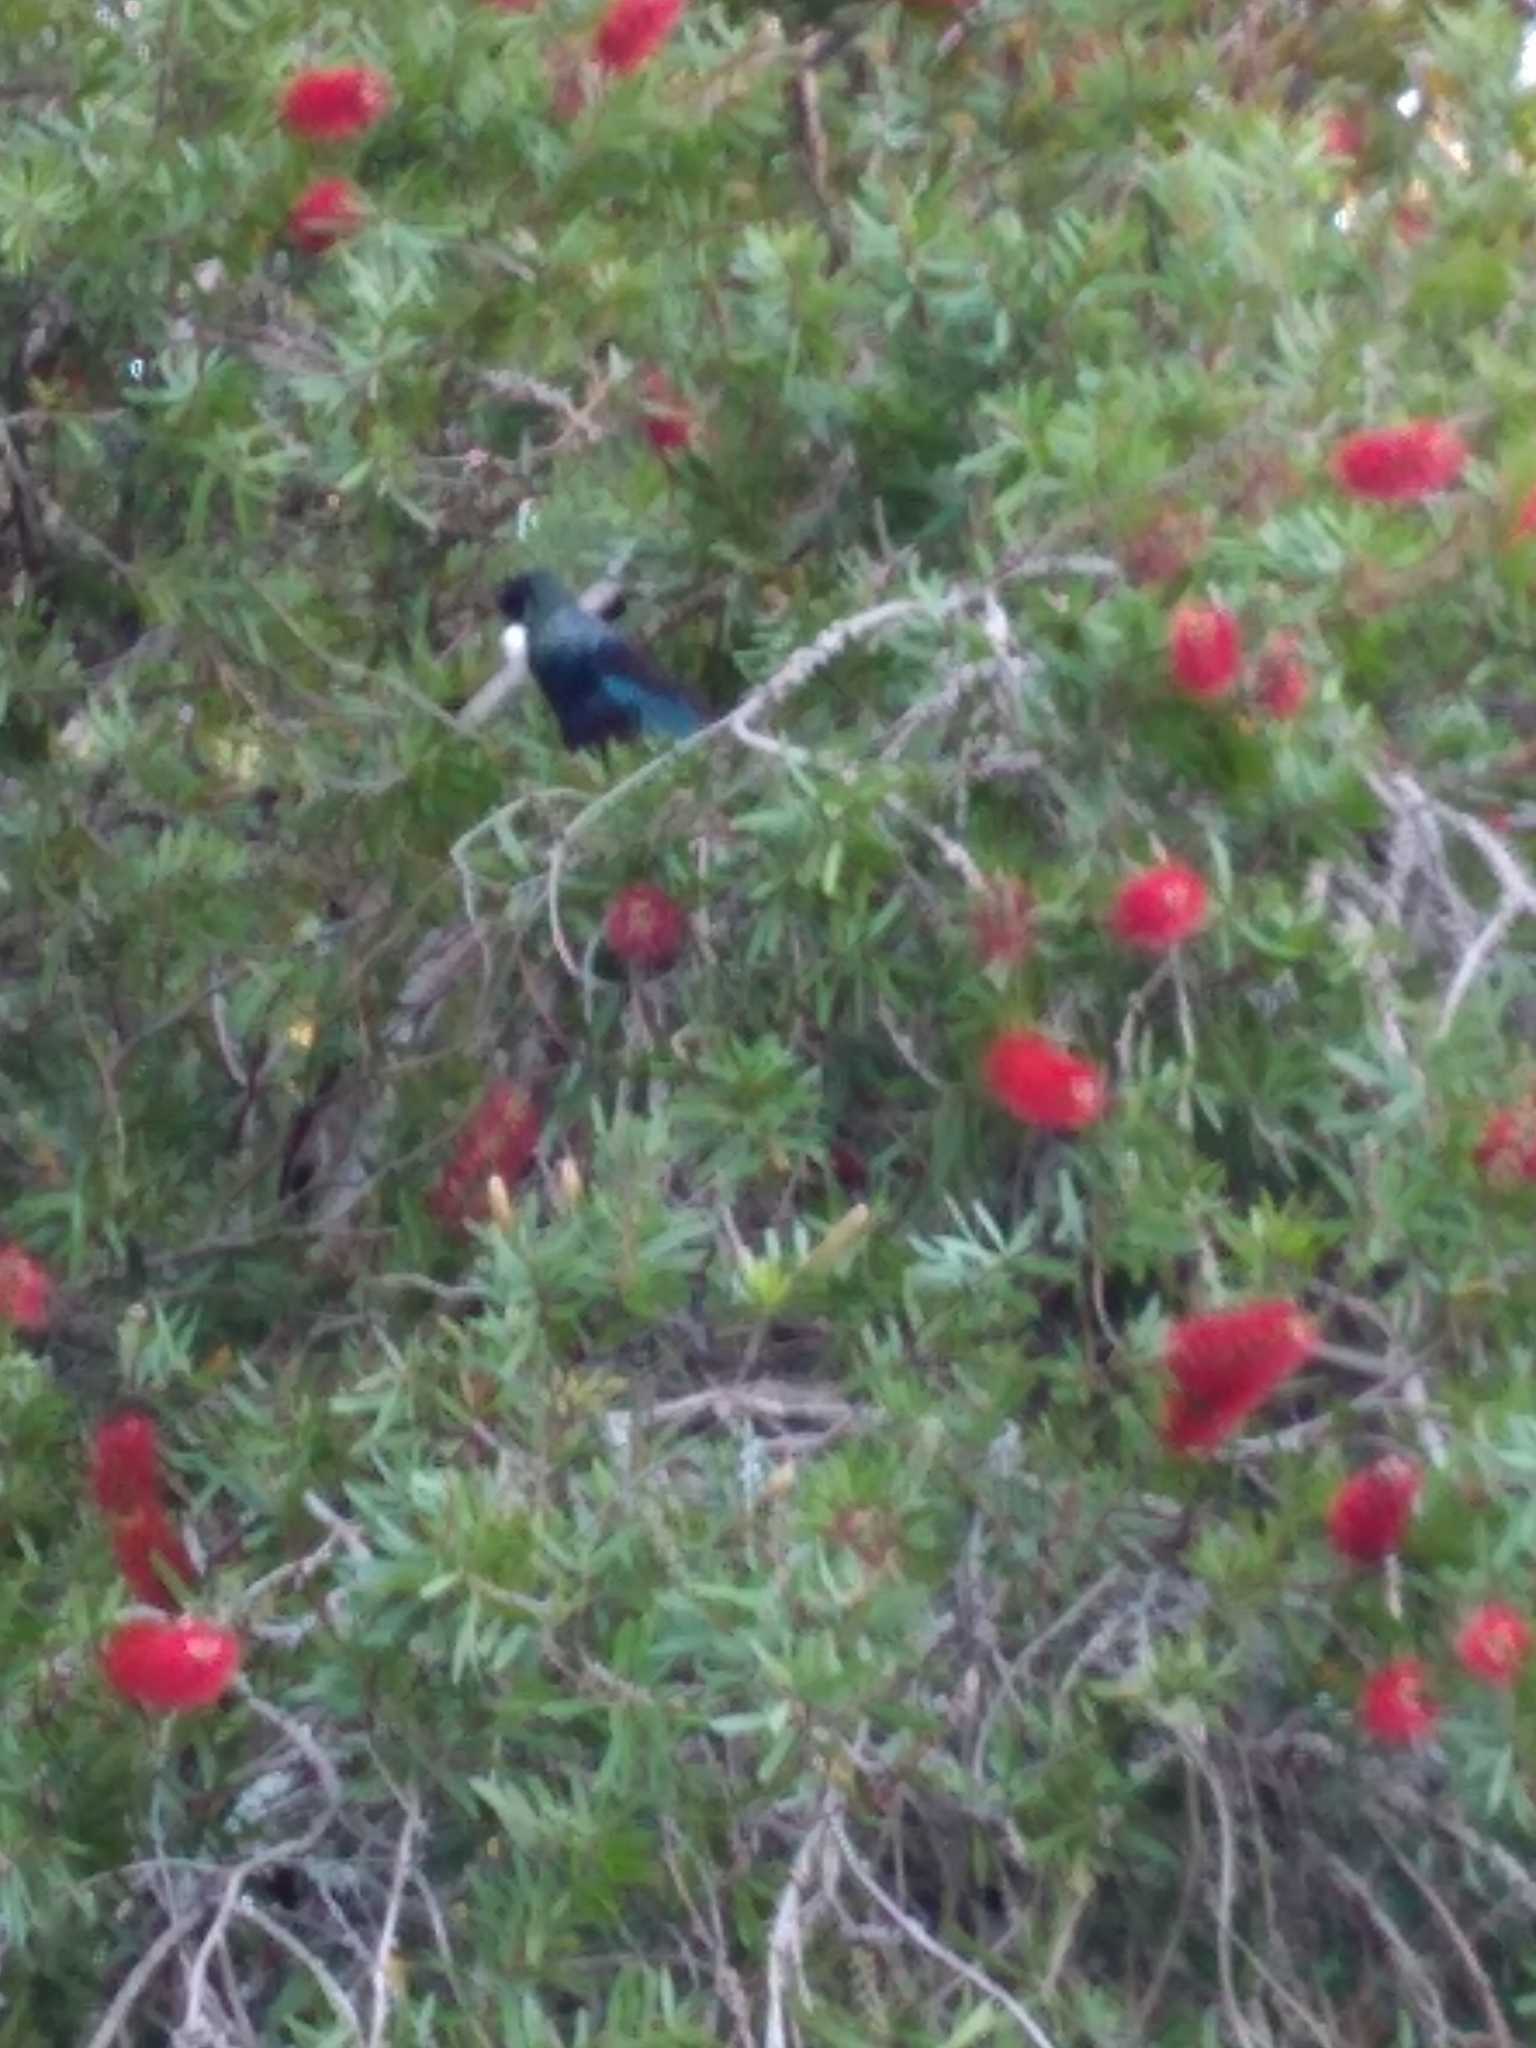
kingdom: Animalia
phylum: Chordata
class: Aves
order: Passeriformes
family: Meliphagidae
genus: Prosthemadera
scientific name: Prosthemadera novaeseelandiae
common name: Tui
